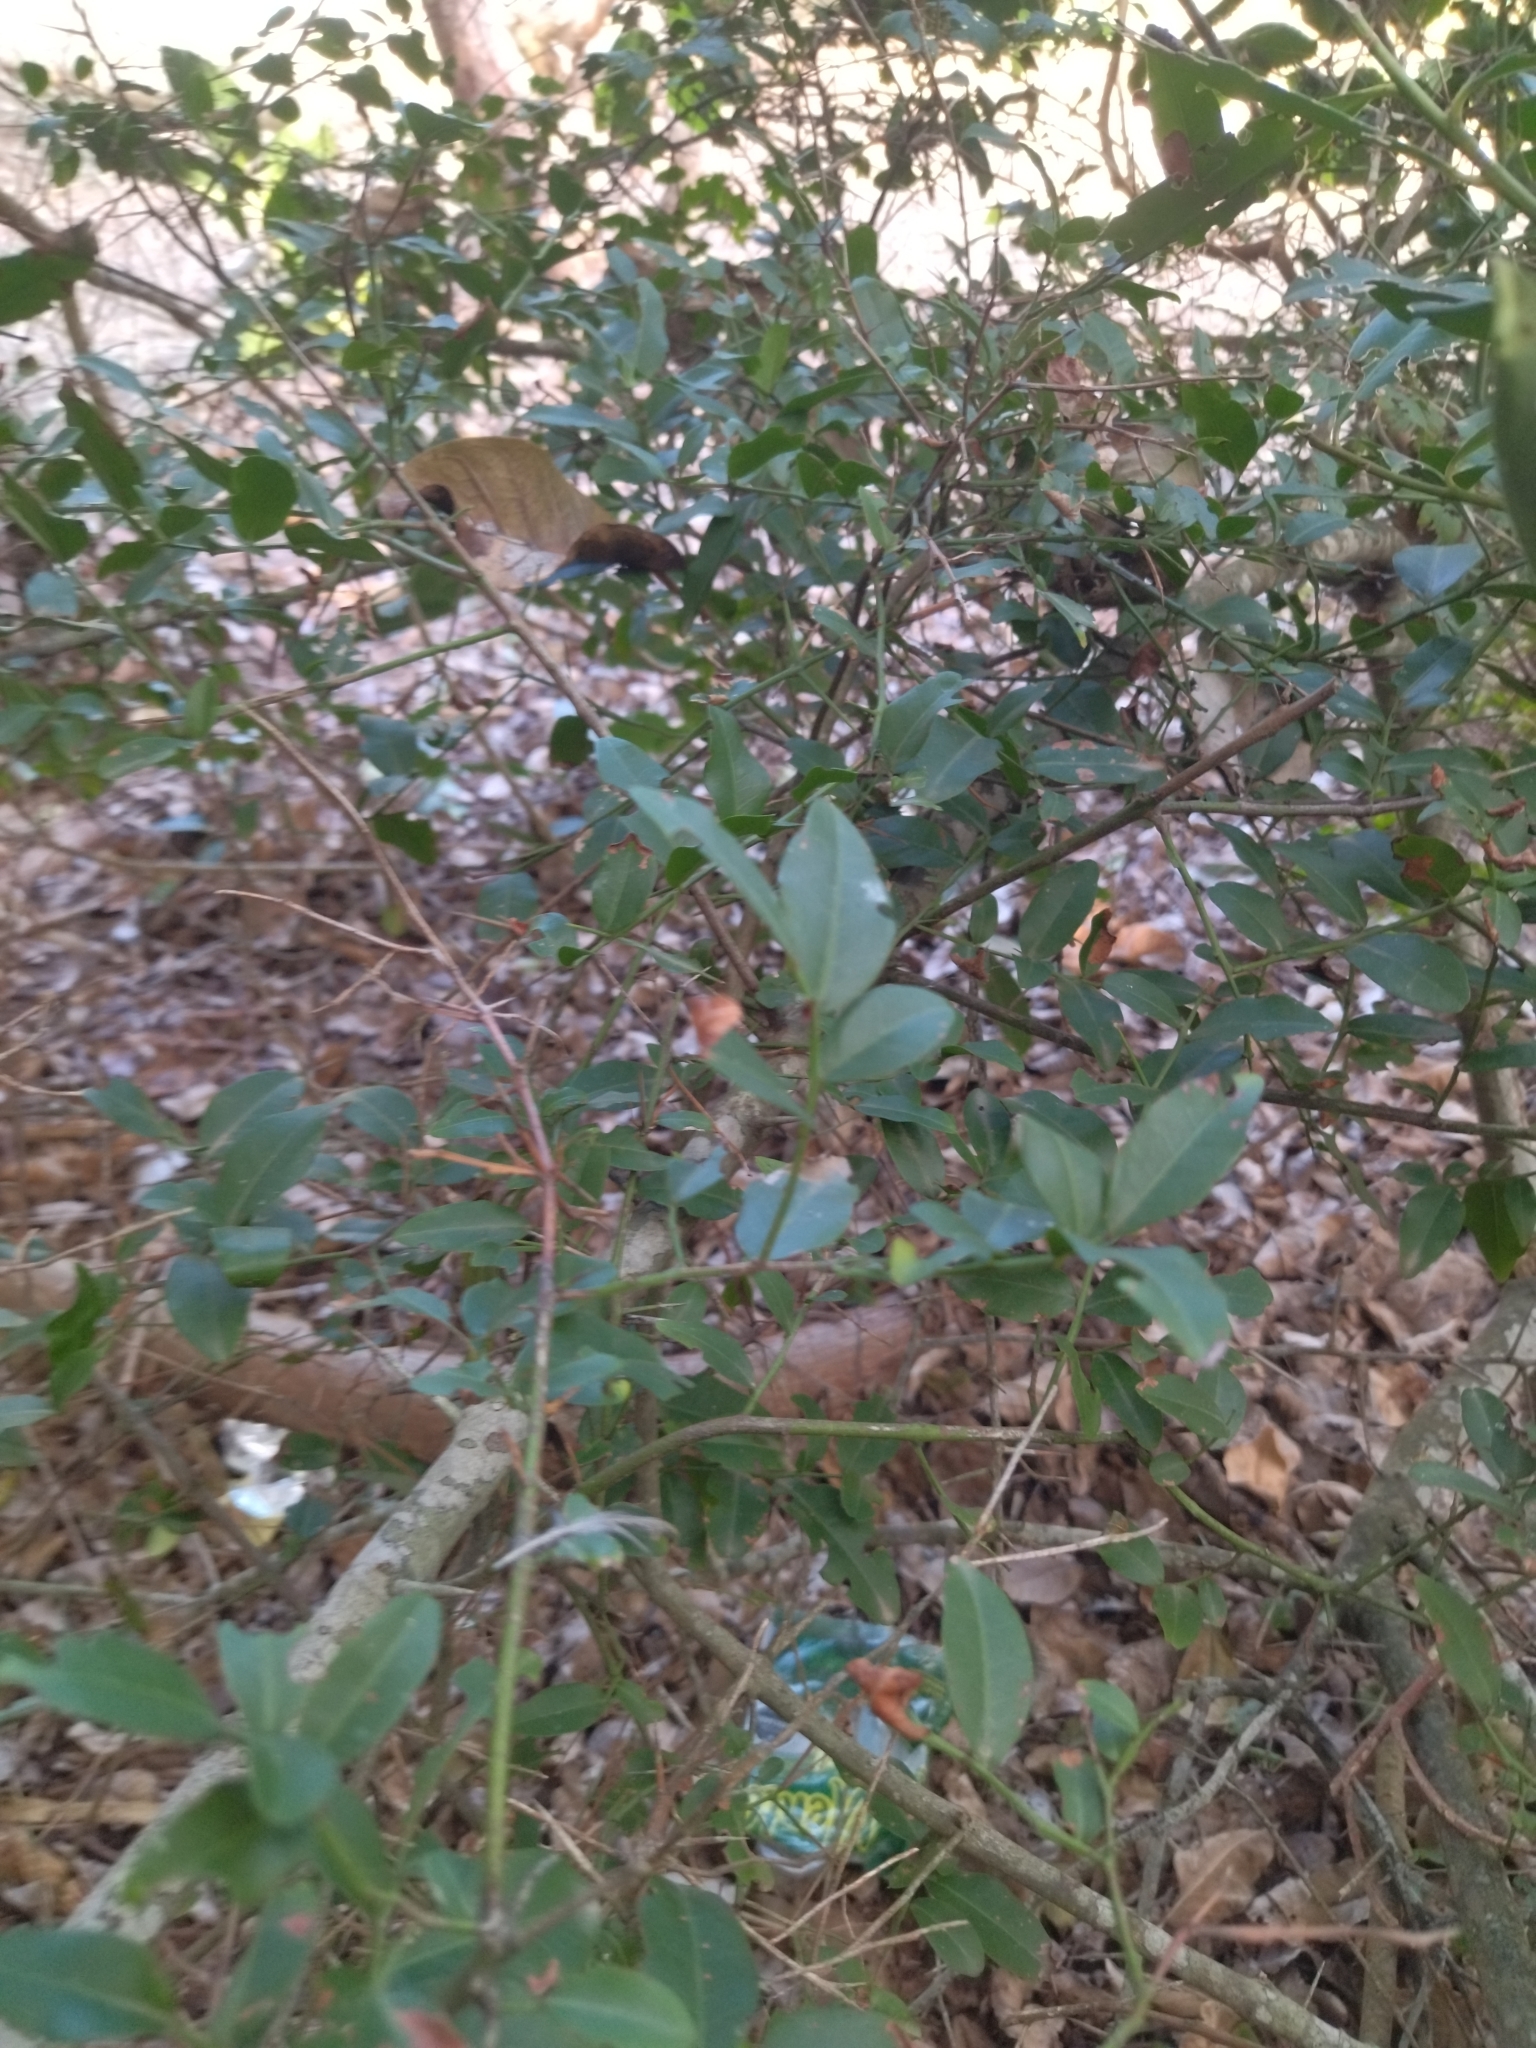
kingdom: Plantae
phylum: Tracheophyta
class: Magnoliopsida
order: Rosales
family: Rhamnaceae
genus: Scutia
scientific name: Scutia buxifolia
